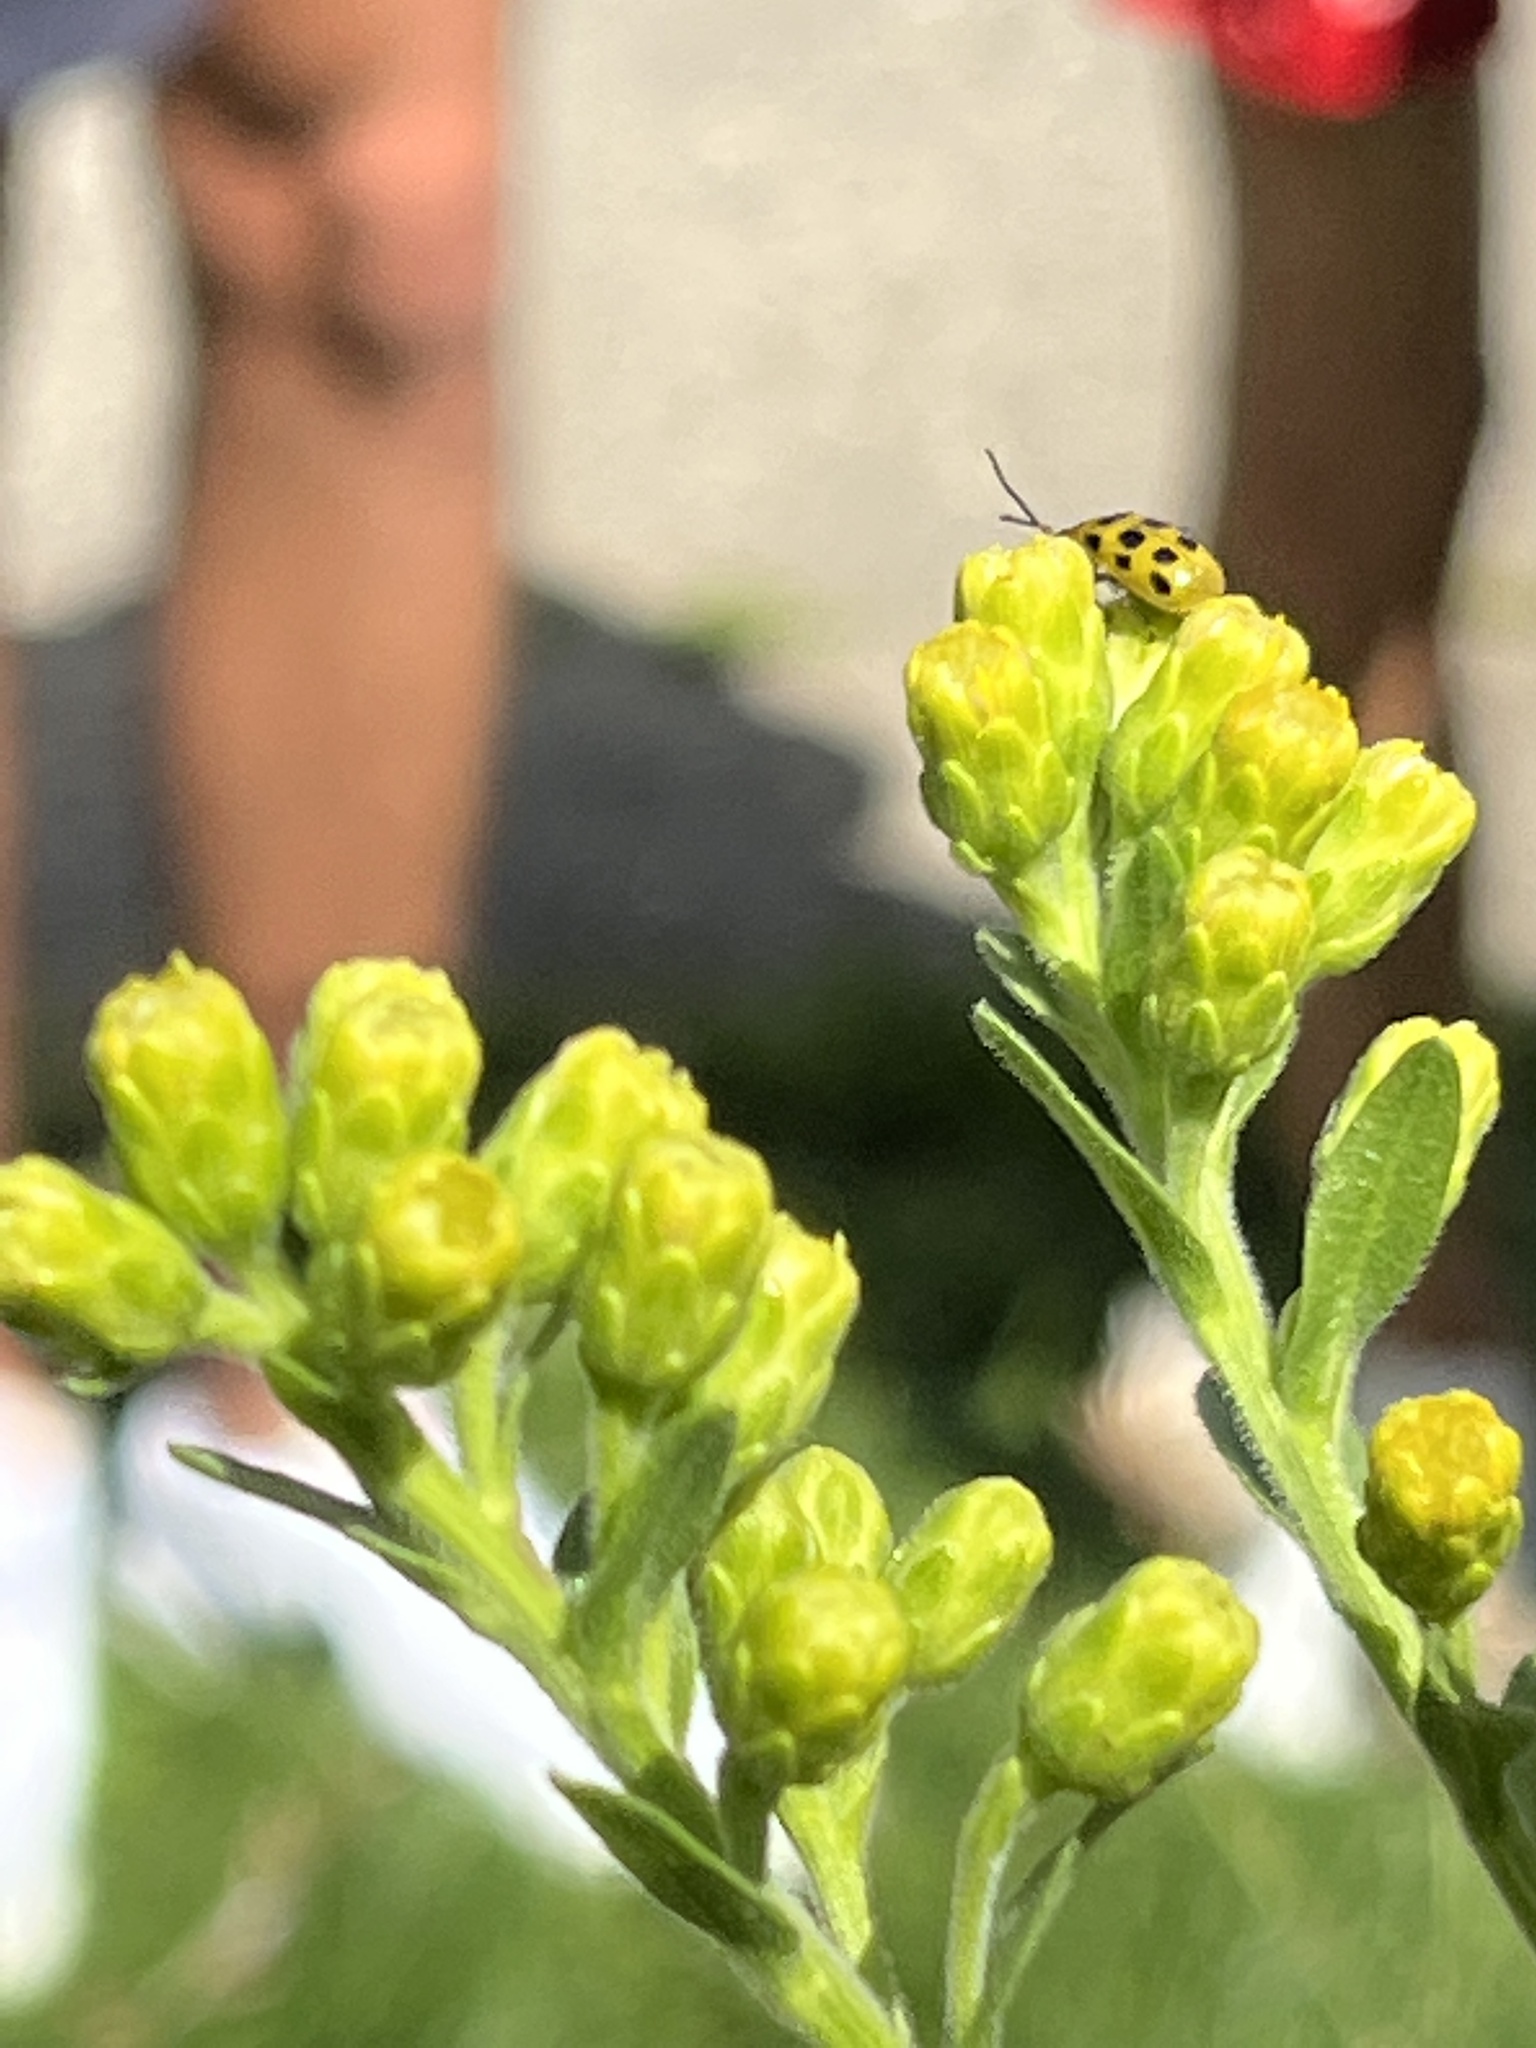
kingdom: Animalia
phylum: Arthropoda
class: Insecta
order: Coleoptera
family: Chrysomelidae
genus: Diabrotica
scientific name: Diabrotica undecimpunctata
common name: Spotted cucumber beetle
